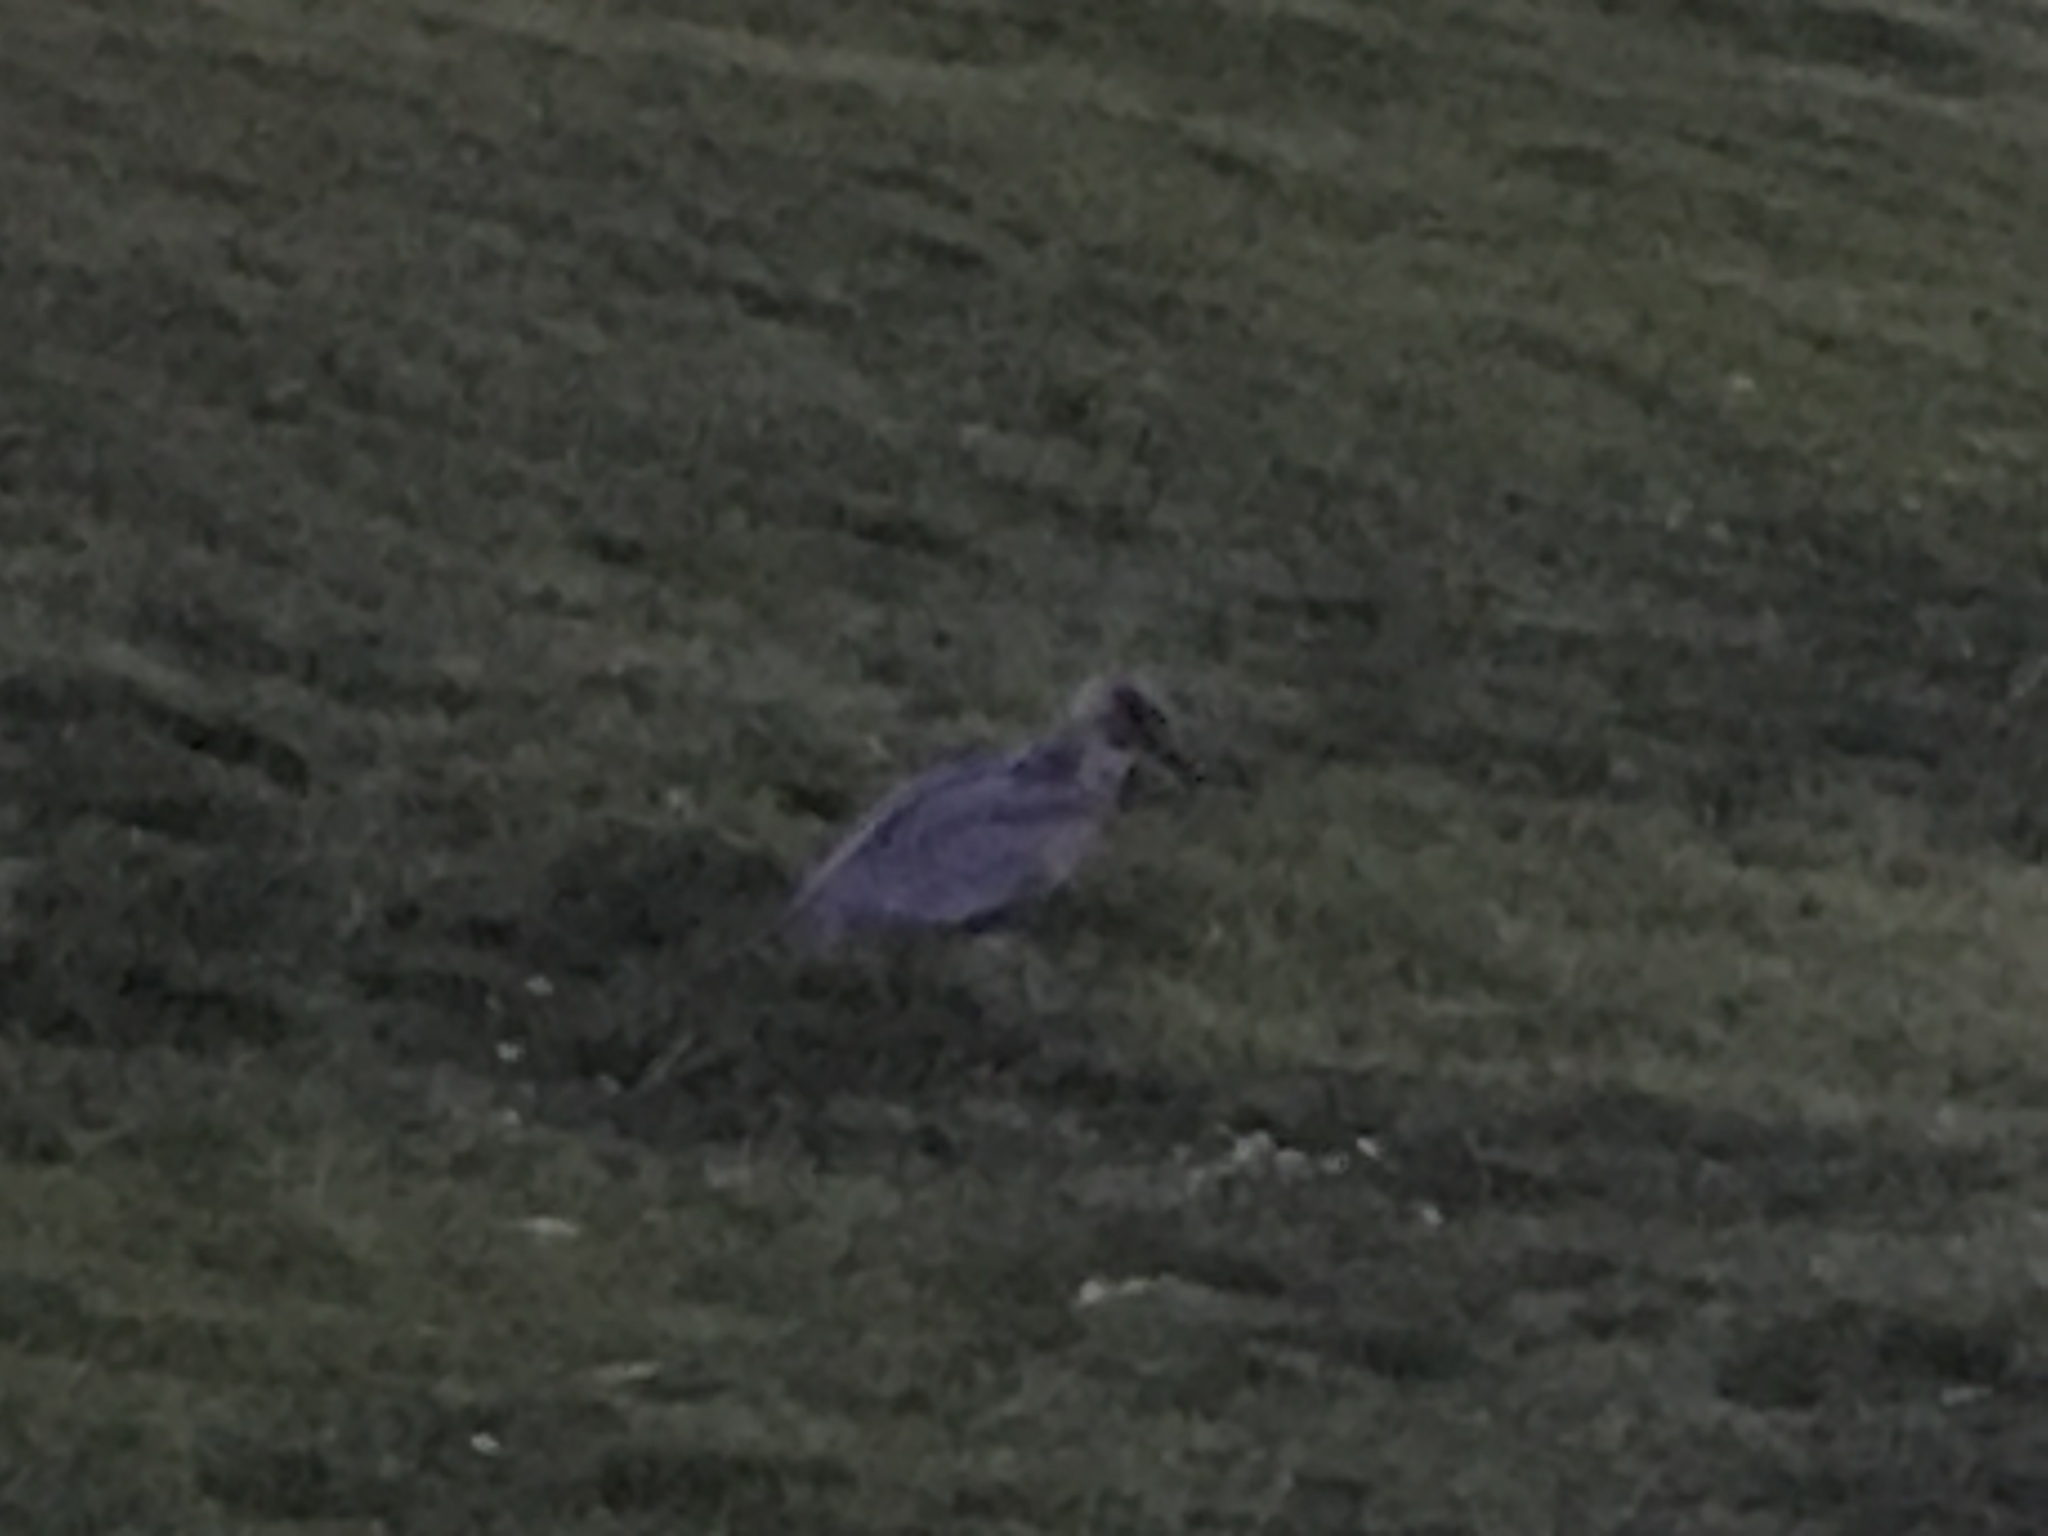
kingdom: Animalia
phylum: Chordata
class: Aves
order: Charadriiformes
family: Laridae
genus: Larus
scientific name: Larus
